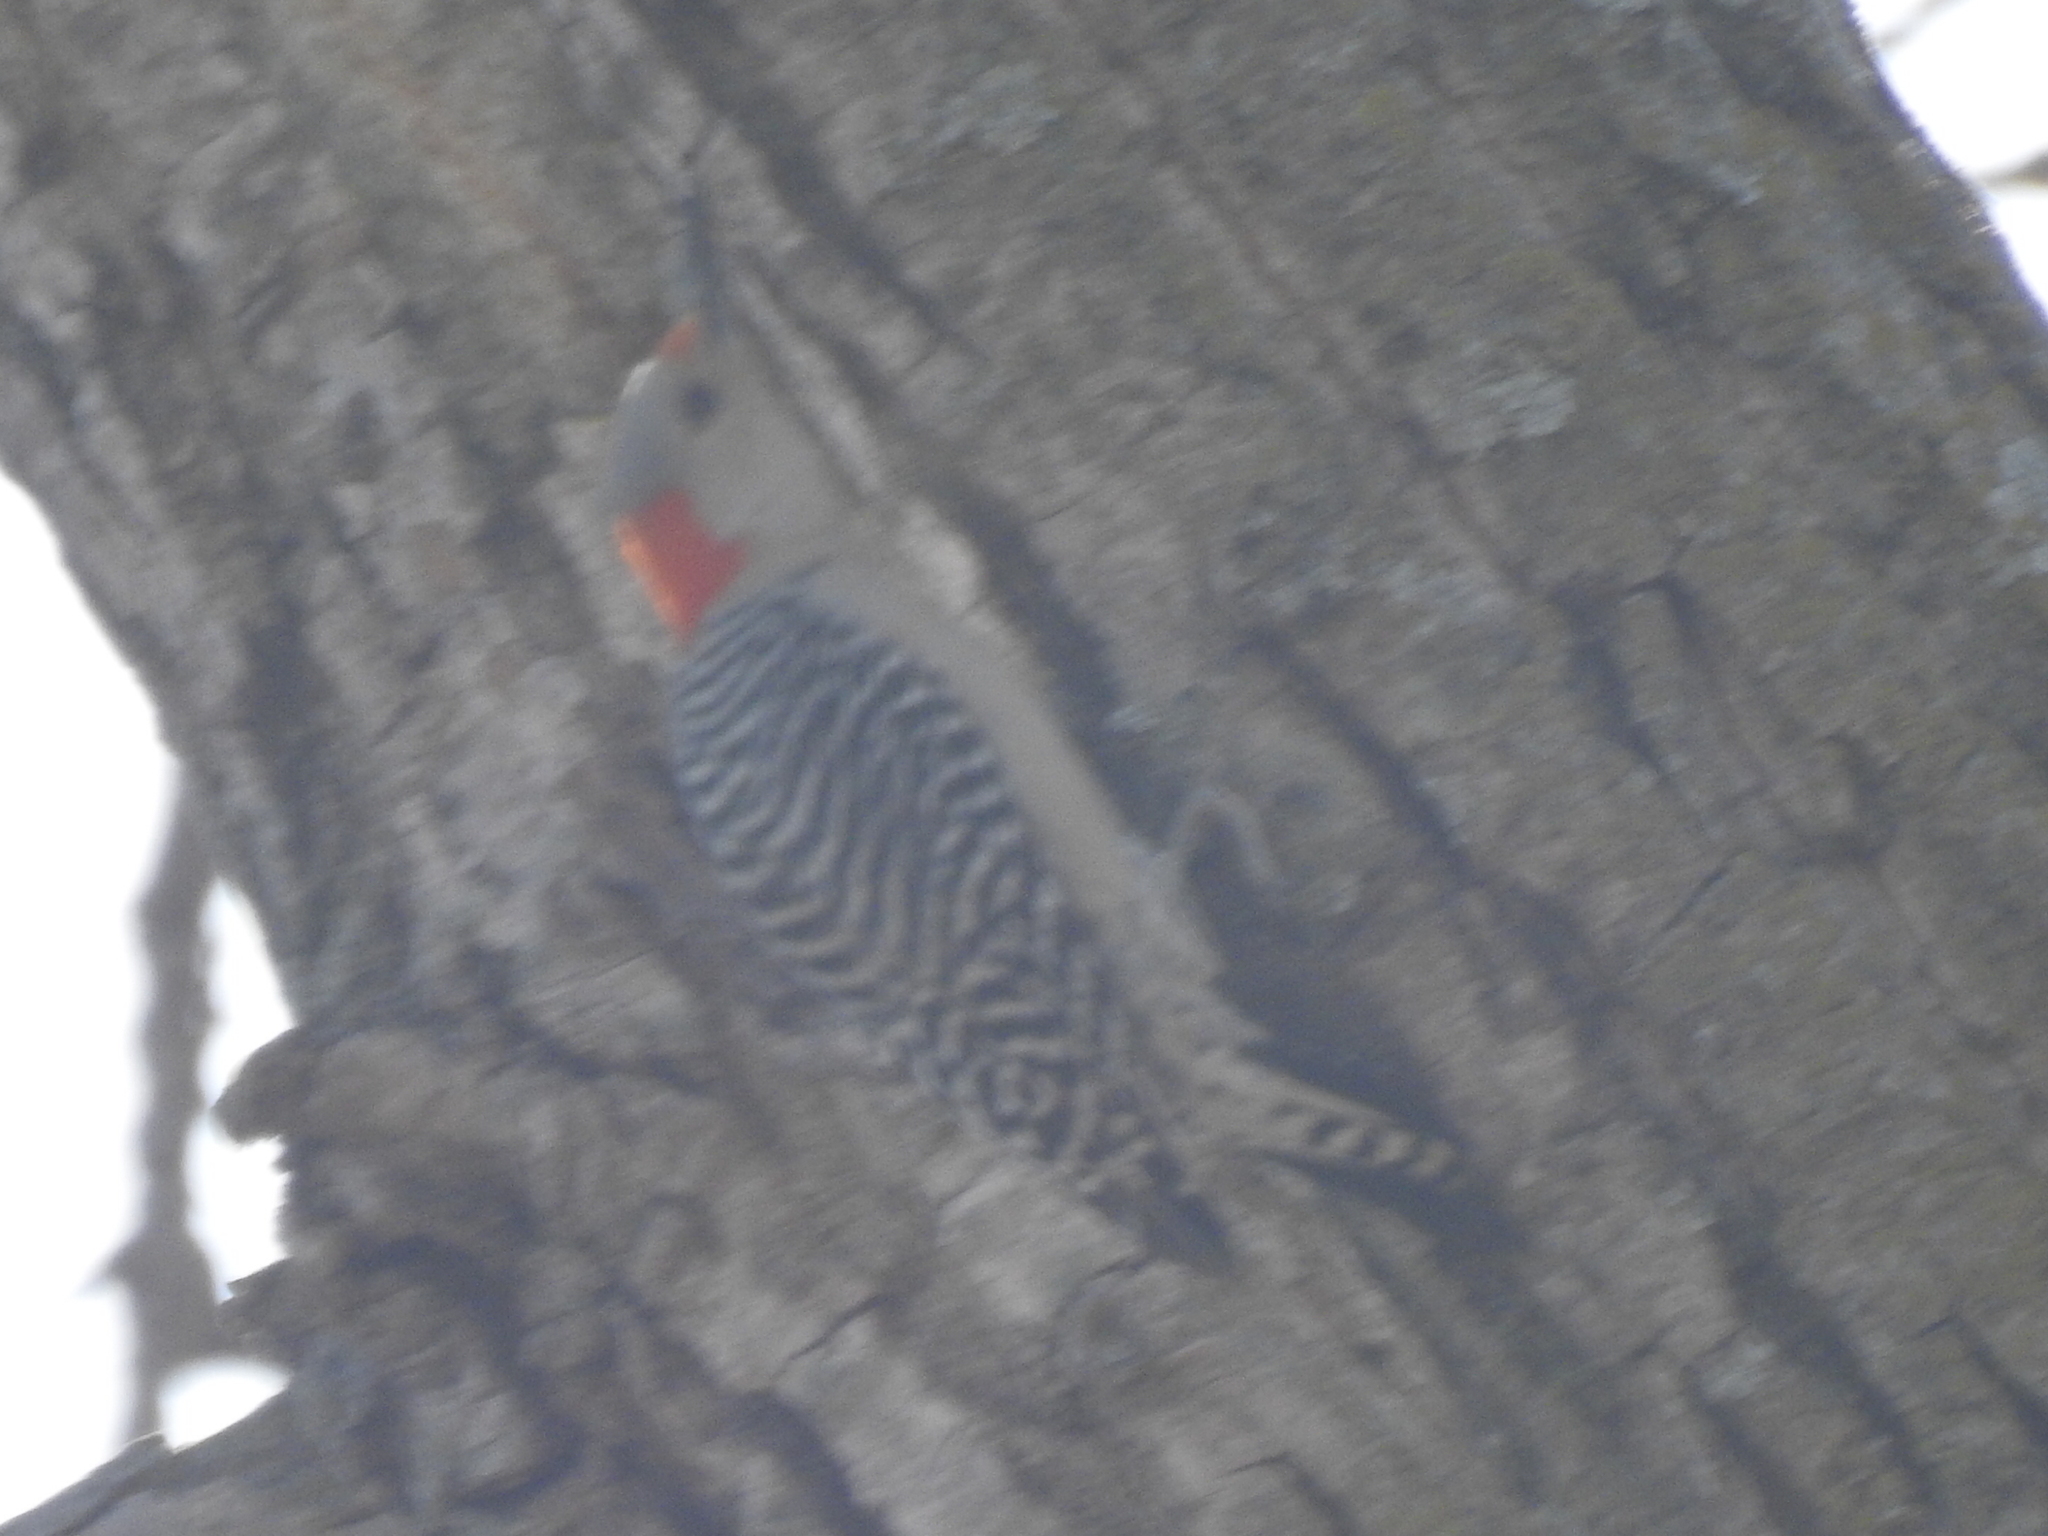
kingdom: Animalia
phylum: Chordata
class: Aves
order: Piciformes
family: Picidae
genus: Melanerpes
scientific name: Melanerpes carolinus
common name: Red-bellied woodpecker
